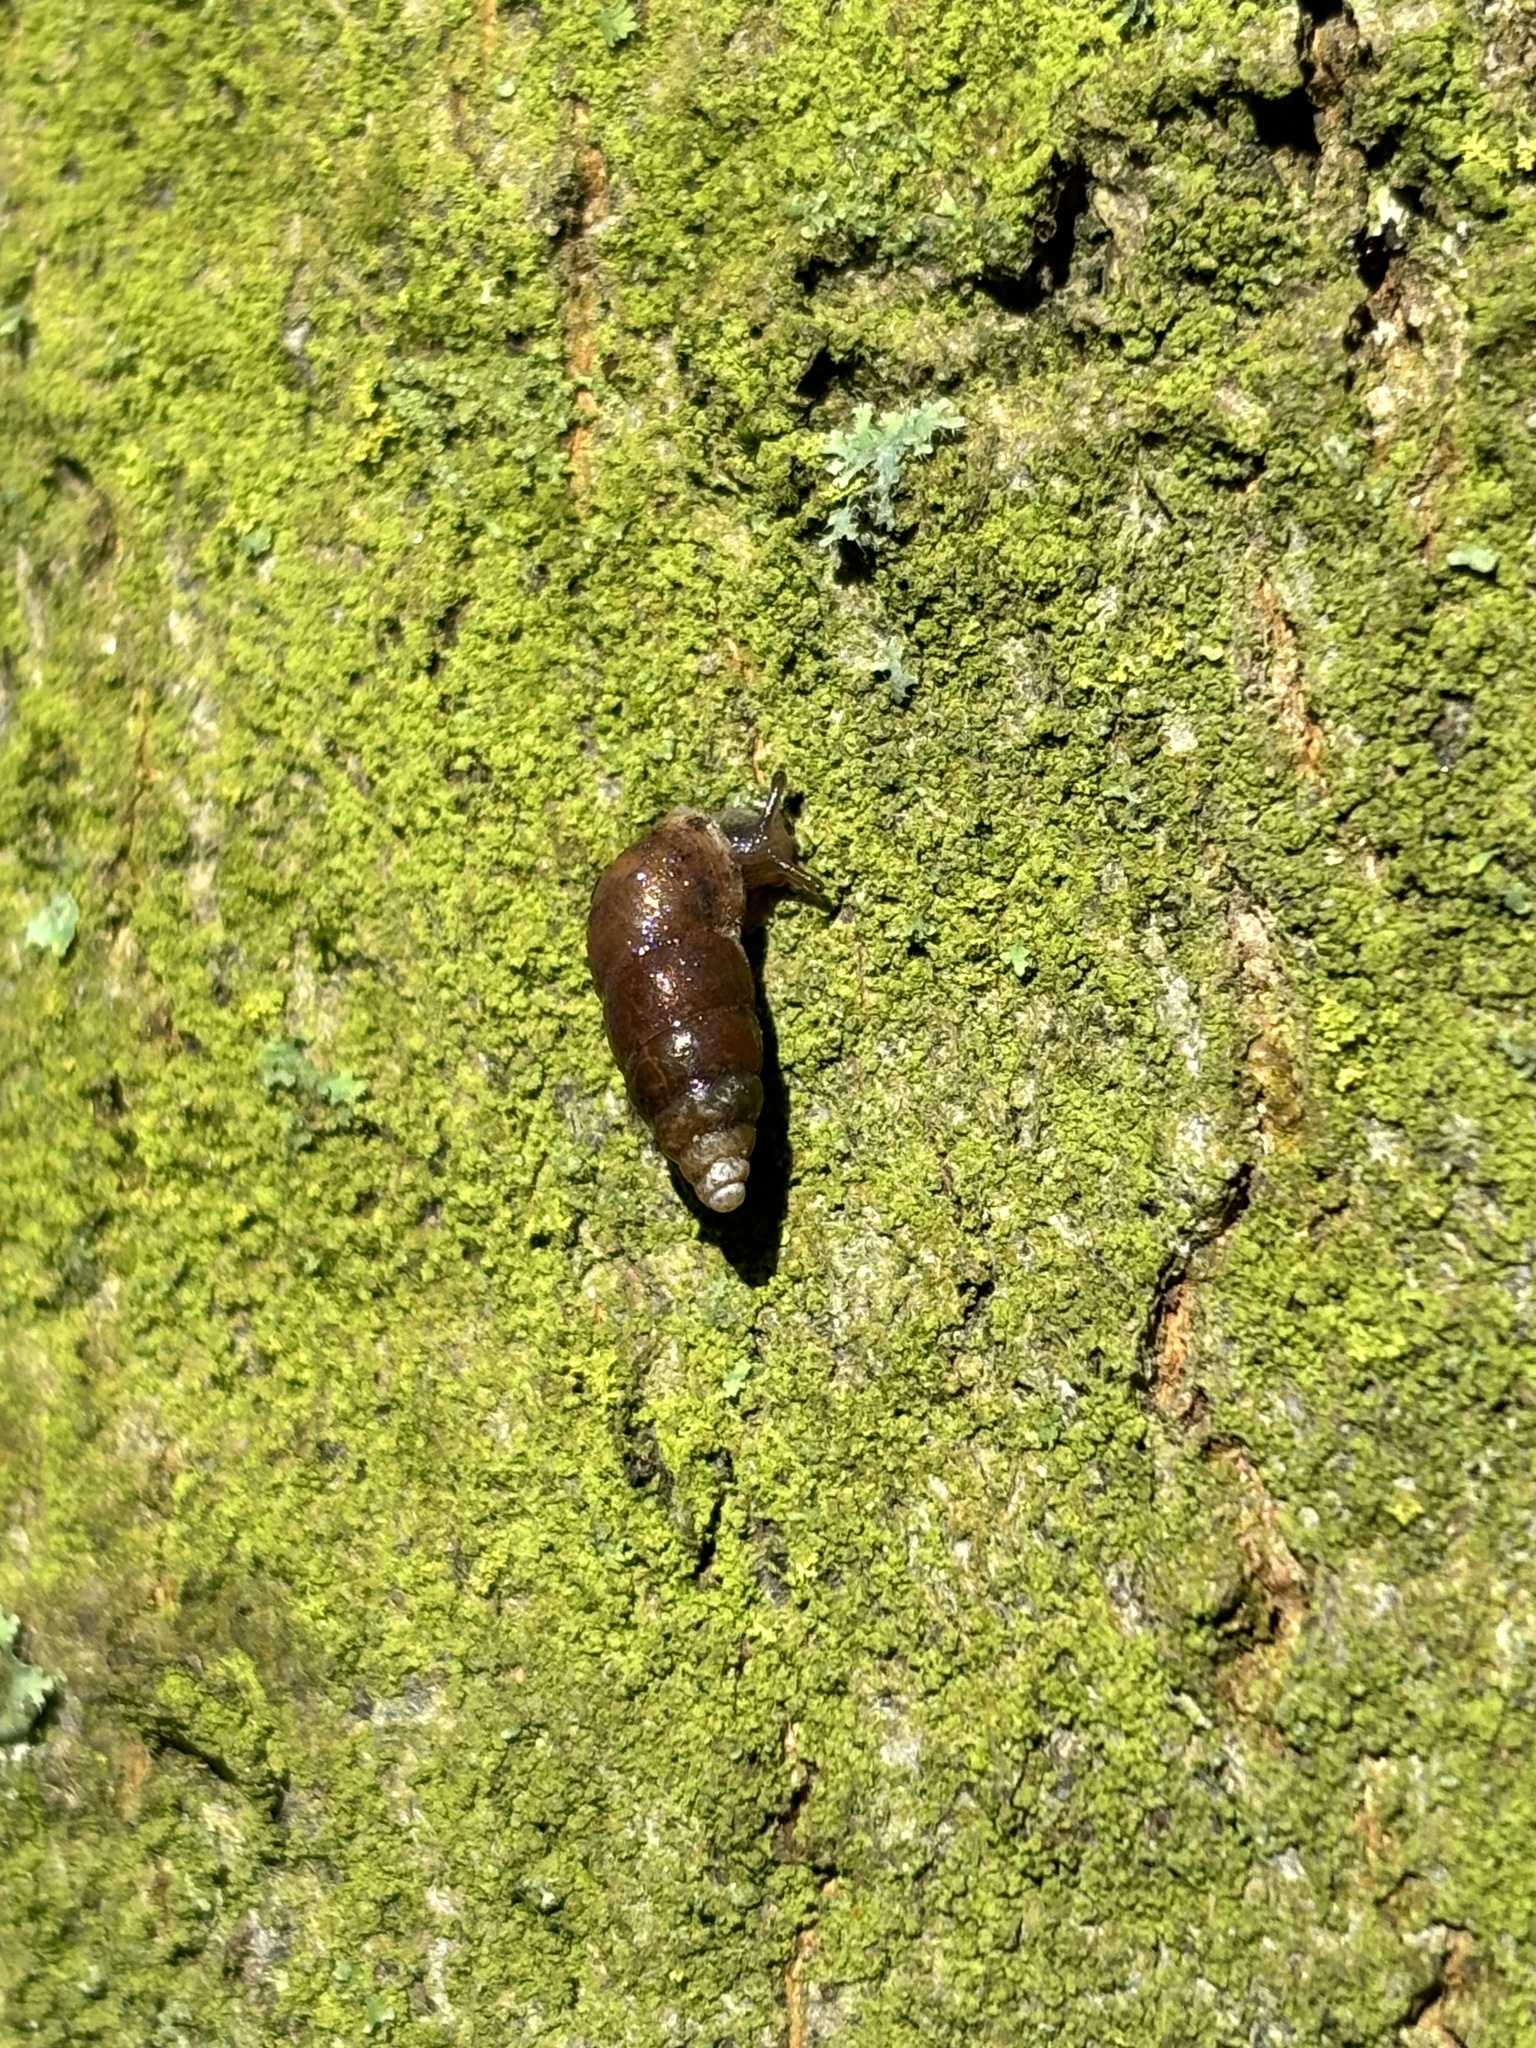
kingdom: Animalia
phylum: Mollusca
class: Gastropoda
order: Stylommatophora
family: Enidae
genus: Merdigera
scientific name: Merdigera obscura
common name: Lesser bulin
